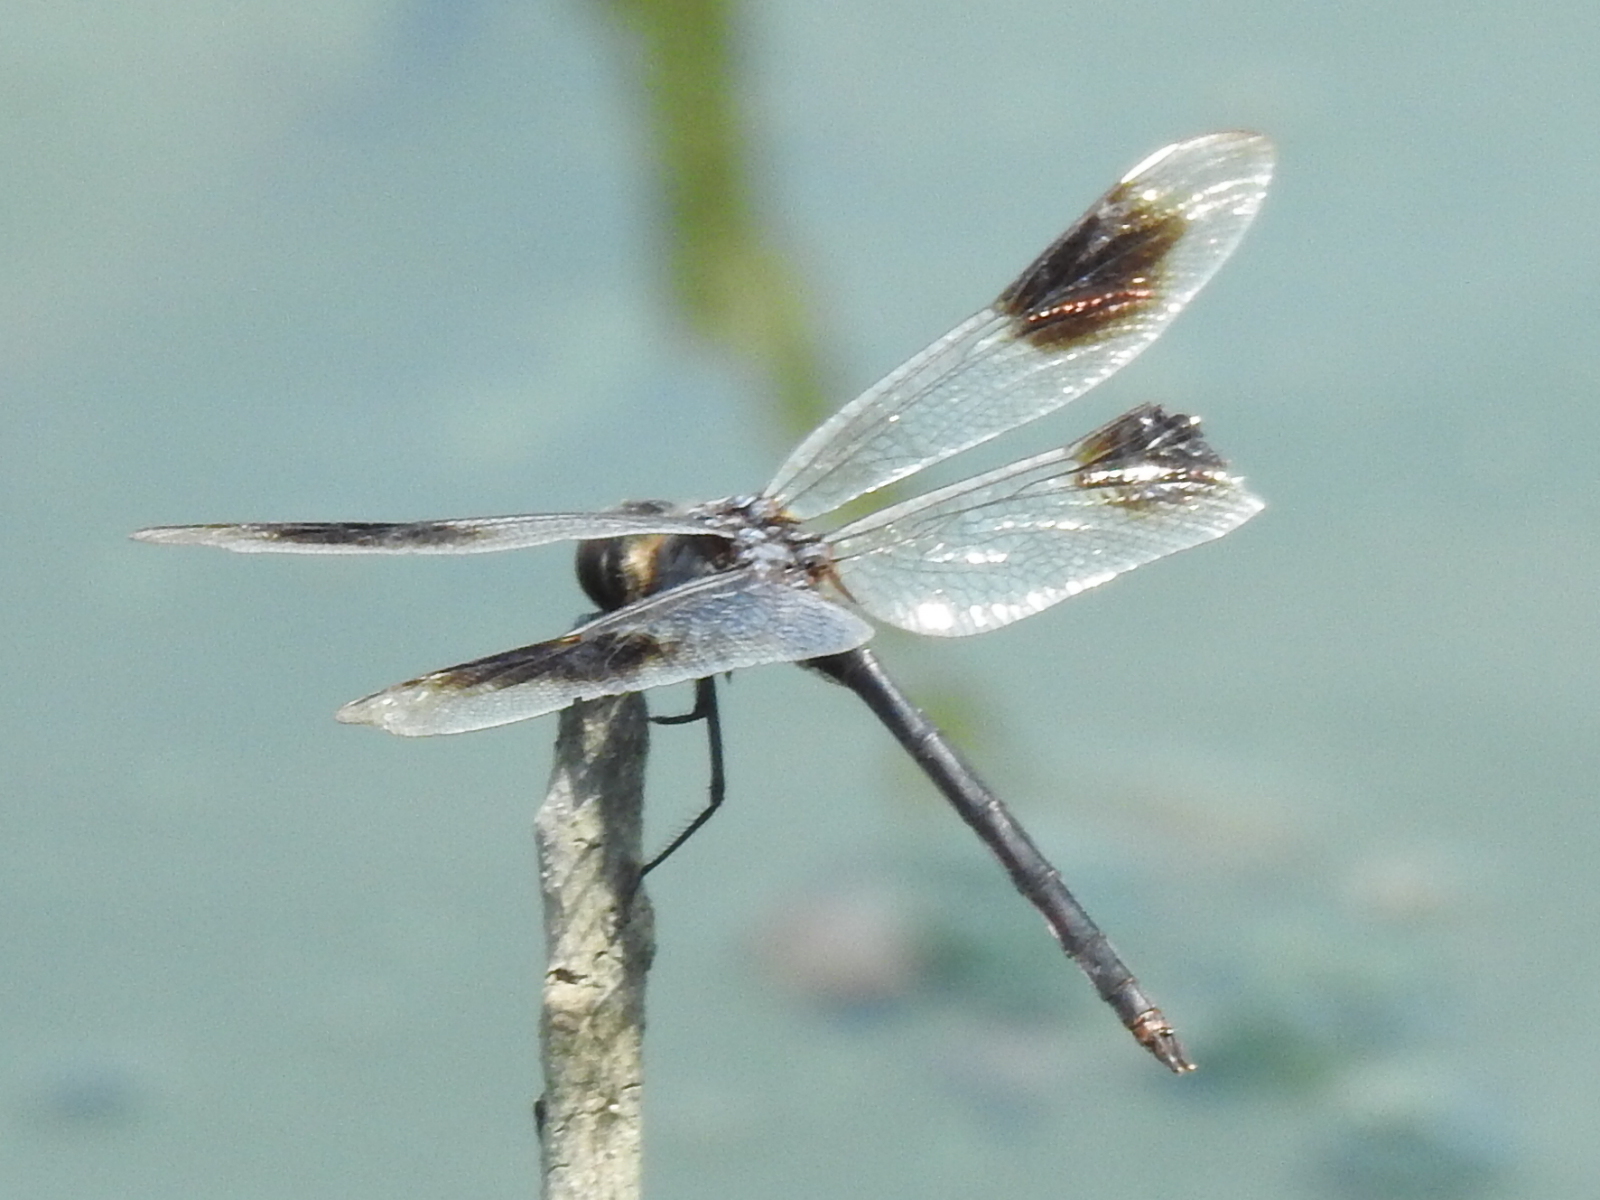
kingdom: Animalia
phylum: Arthropoda
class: Insecta
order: Odonata
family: Libellulidae
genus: Brachymesia
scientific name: Brachymesia gravida
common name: Four-spotted pennant
